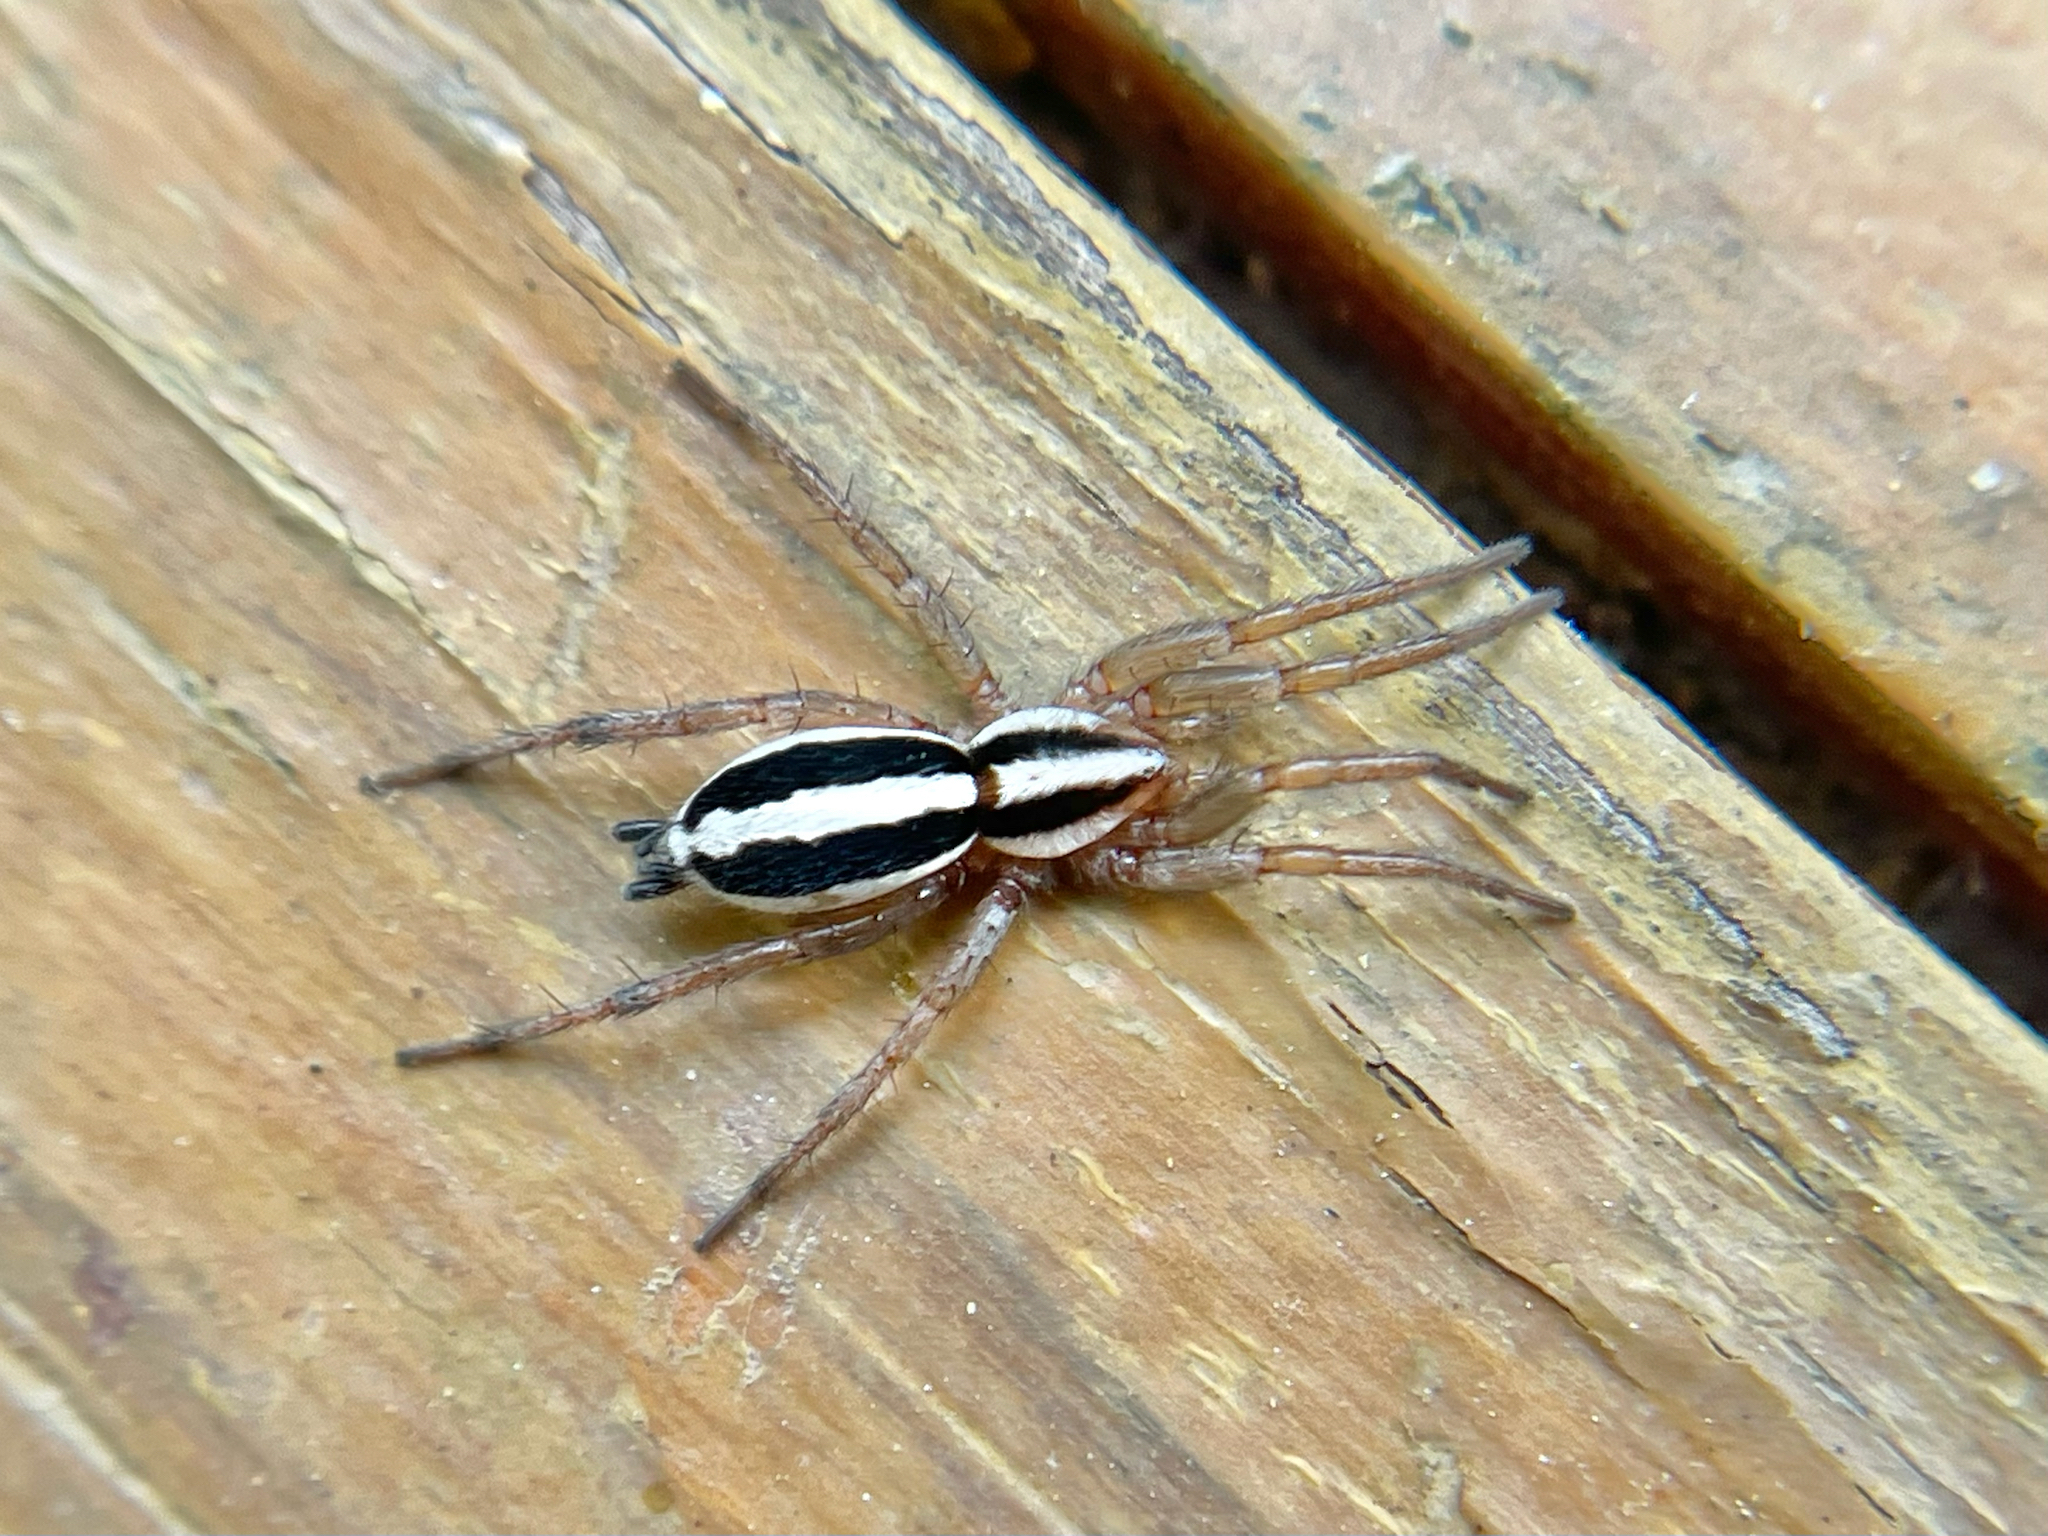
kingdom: Animalia
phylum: Arthropoda
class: Arachnida
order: Araneae
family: Gnaphosidae
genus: Cesonia
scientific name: Cesonia bilineata
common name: Two-lined stealthy ground spider
